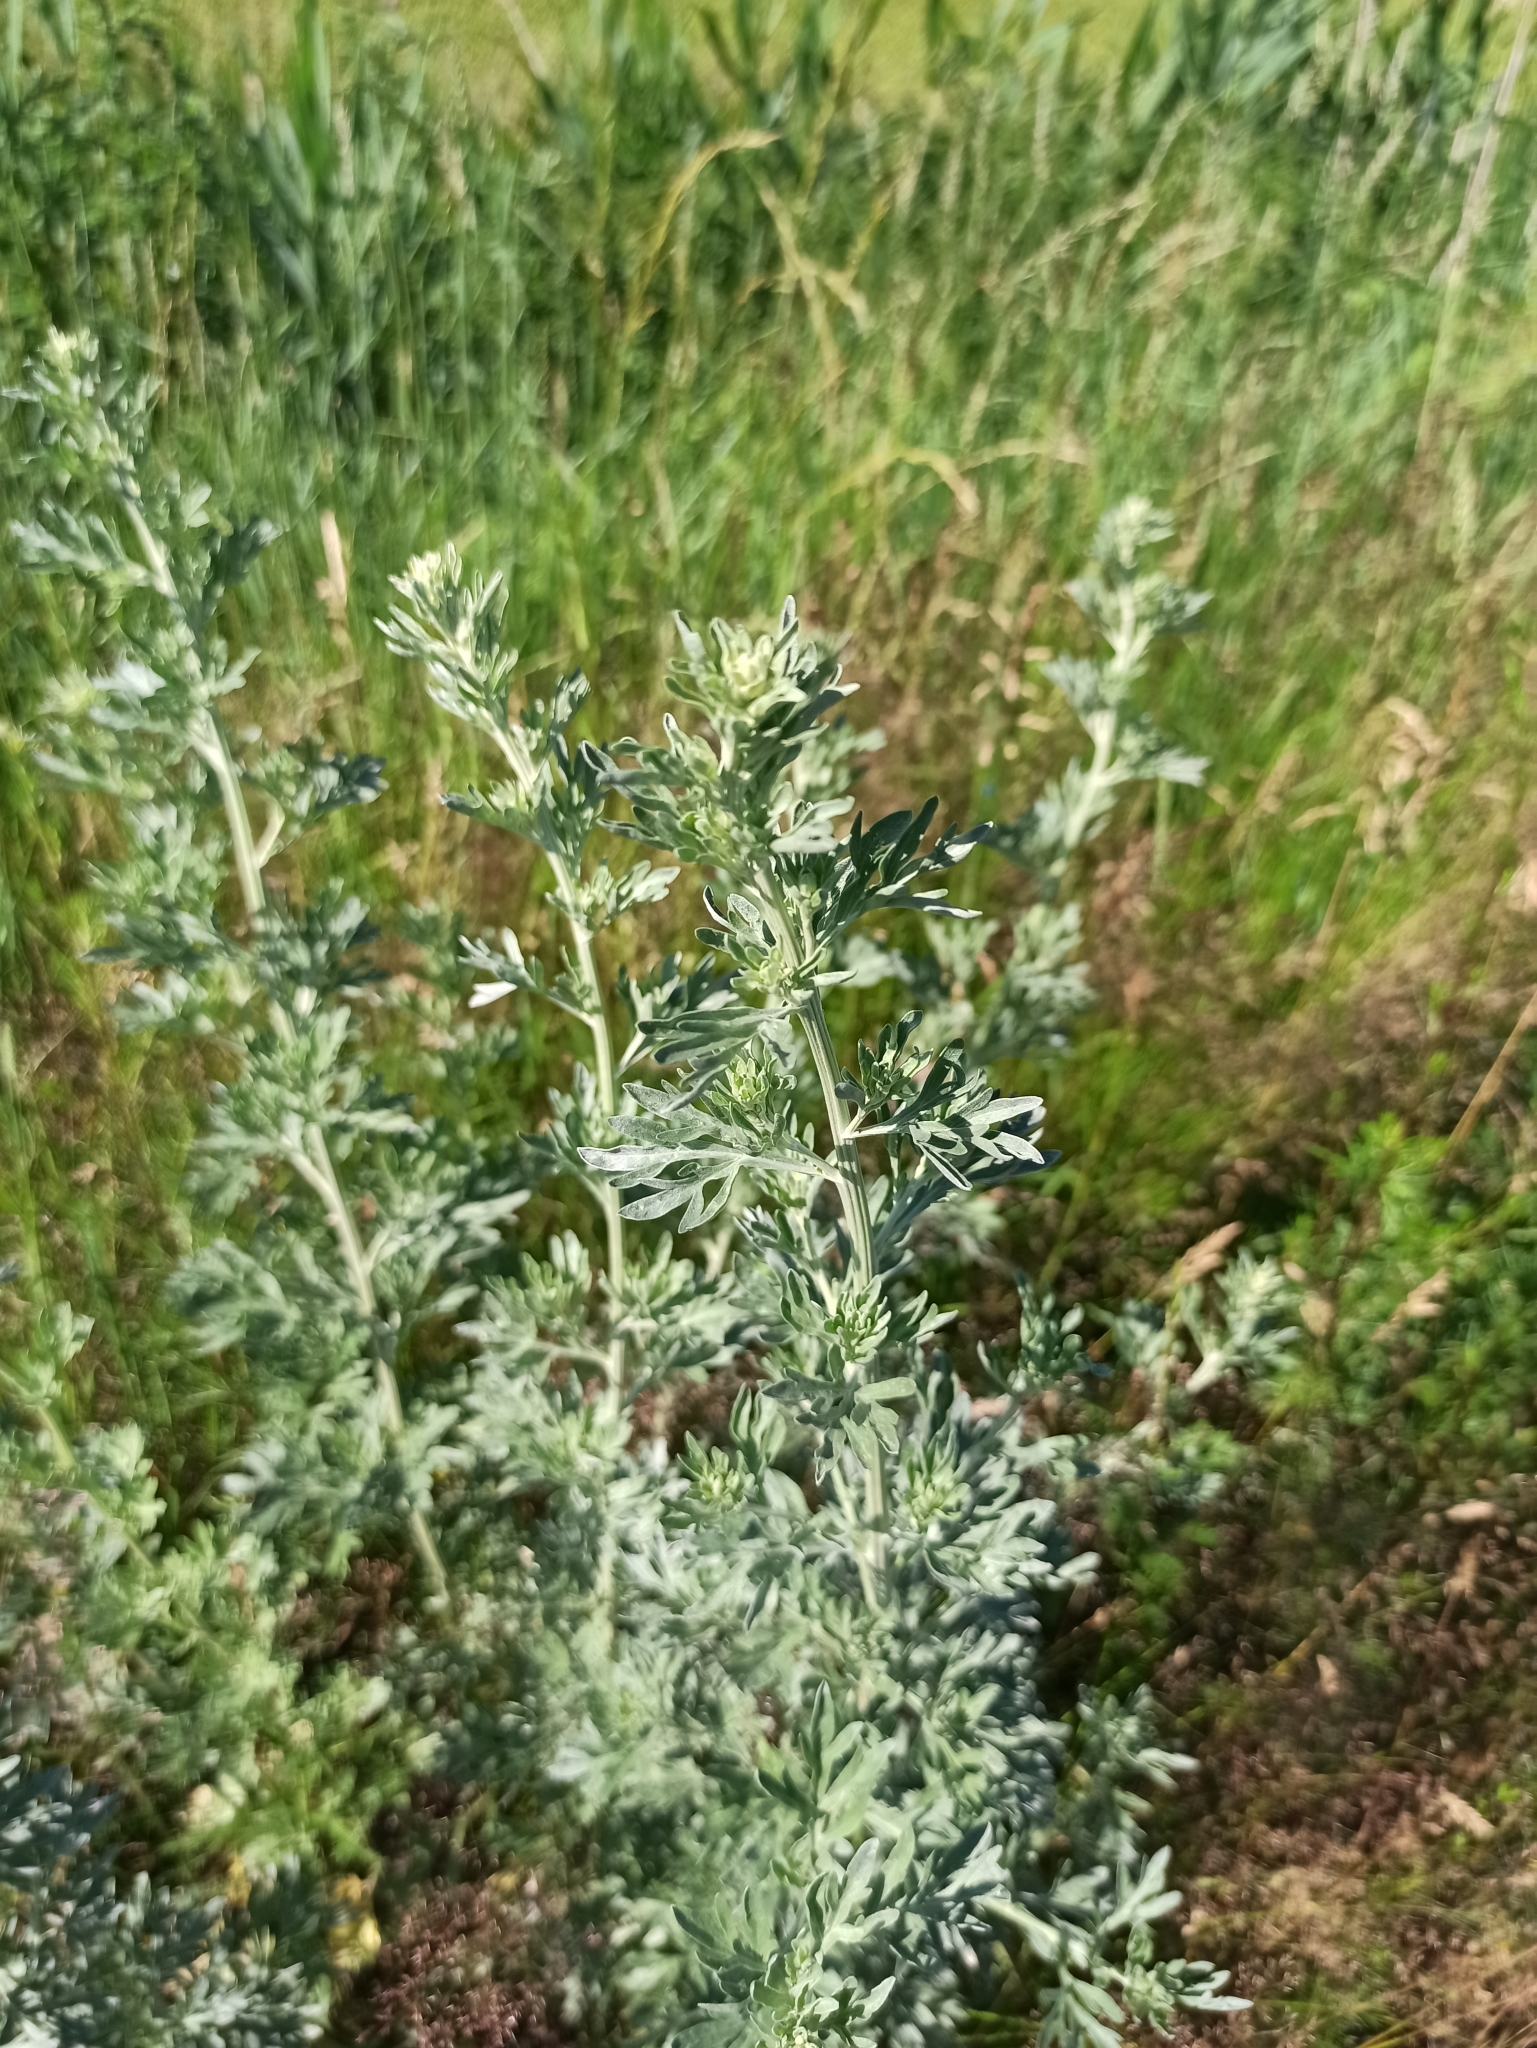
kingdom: Plantae
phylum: Tracheophyta
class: Magnoliopsida
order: Asterales
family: Asteraceae
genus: Artemisia
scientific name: Artemisia absinthium
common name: Wormwood
